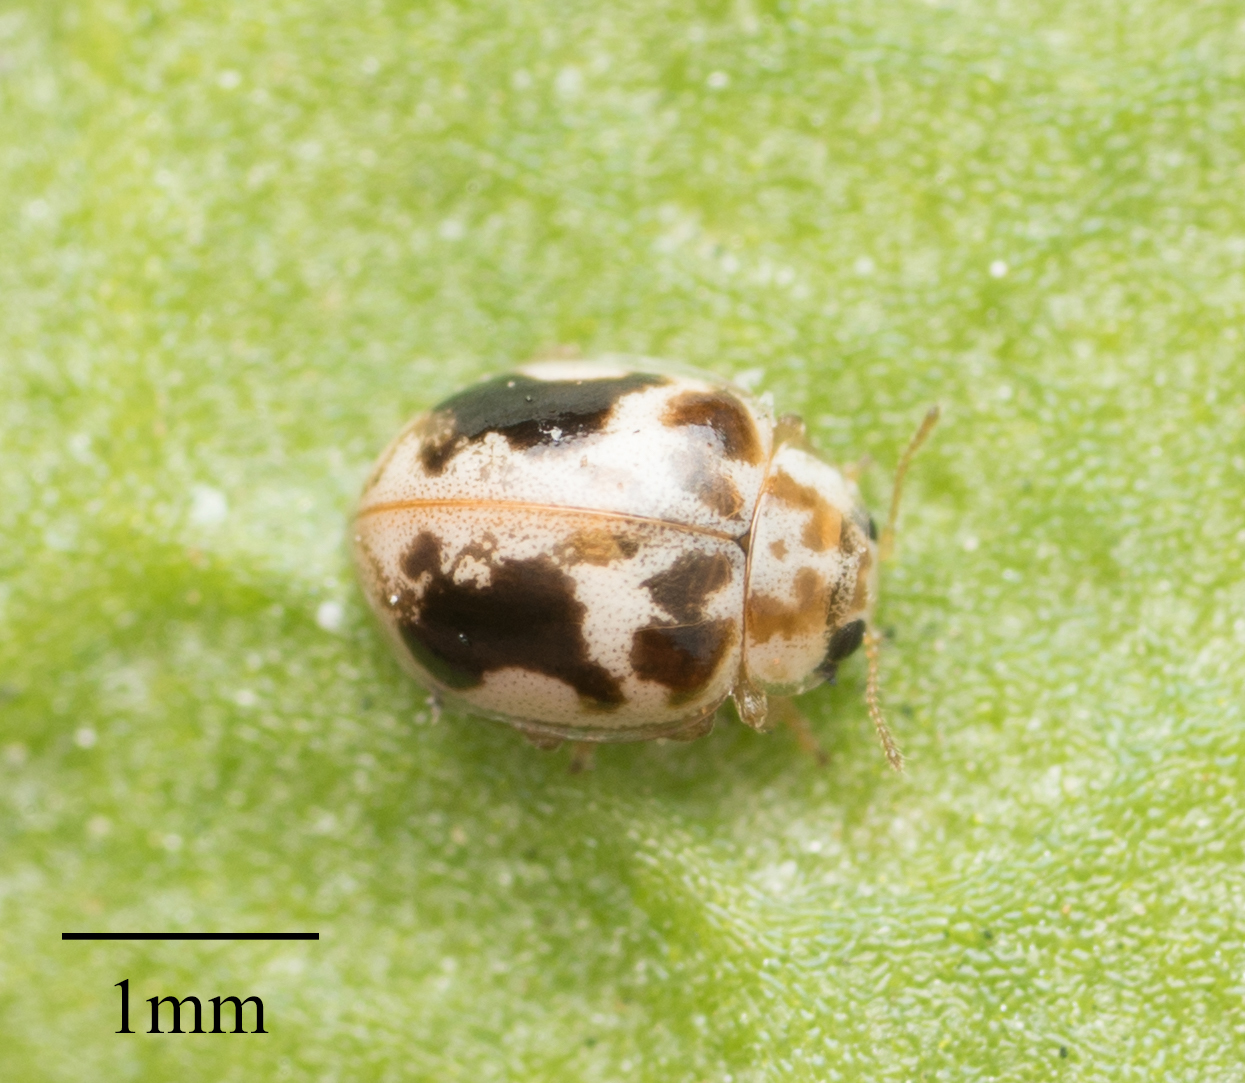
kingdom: Animalia
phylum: Arthropoda
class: Insecta
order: Coleoptera
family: Coccinellidae
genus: Psyllobora
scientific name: Psyllobora renifer
